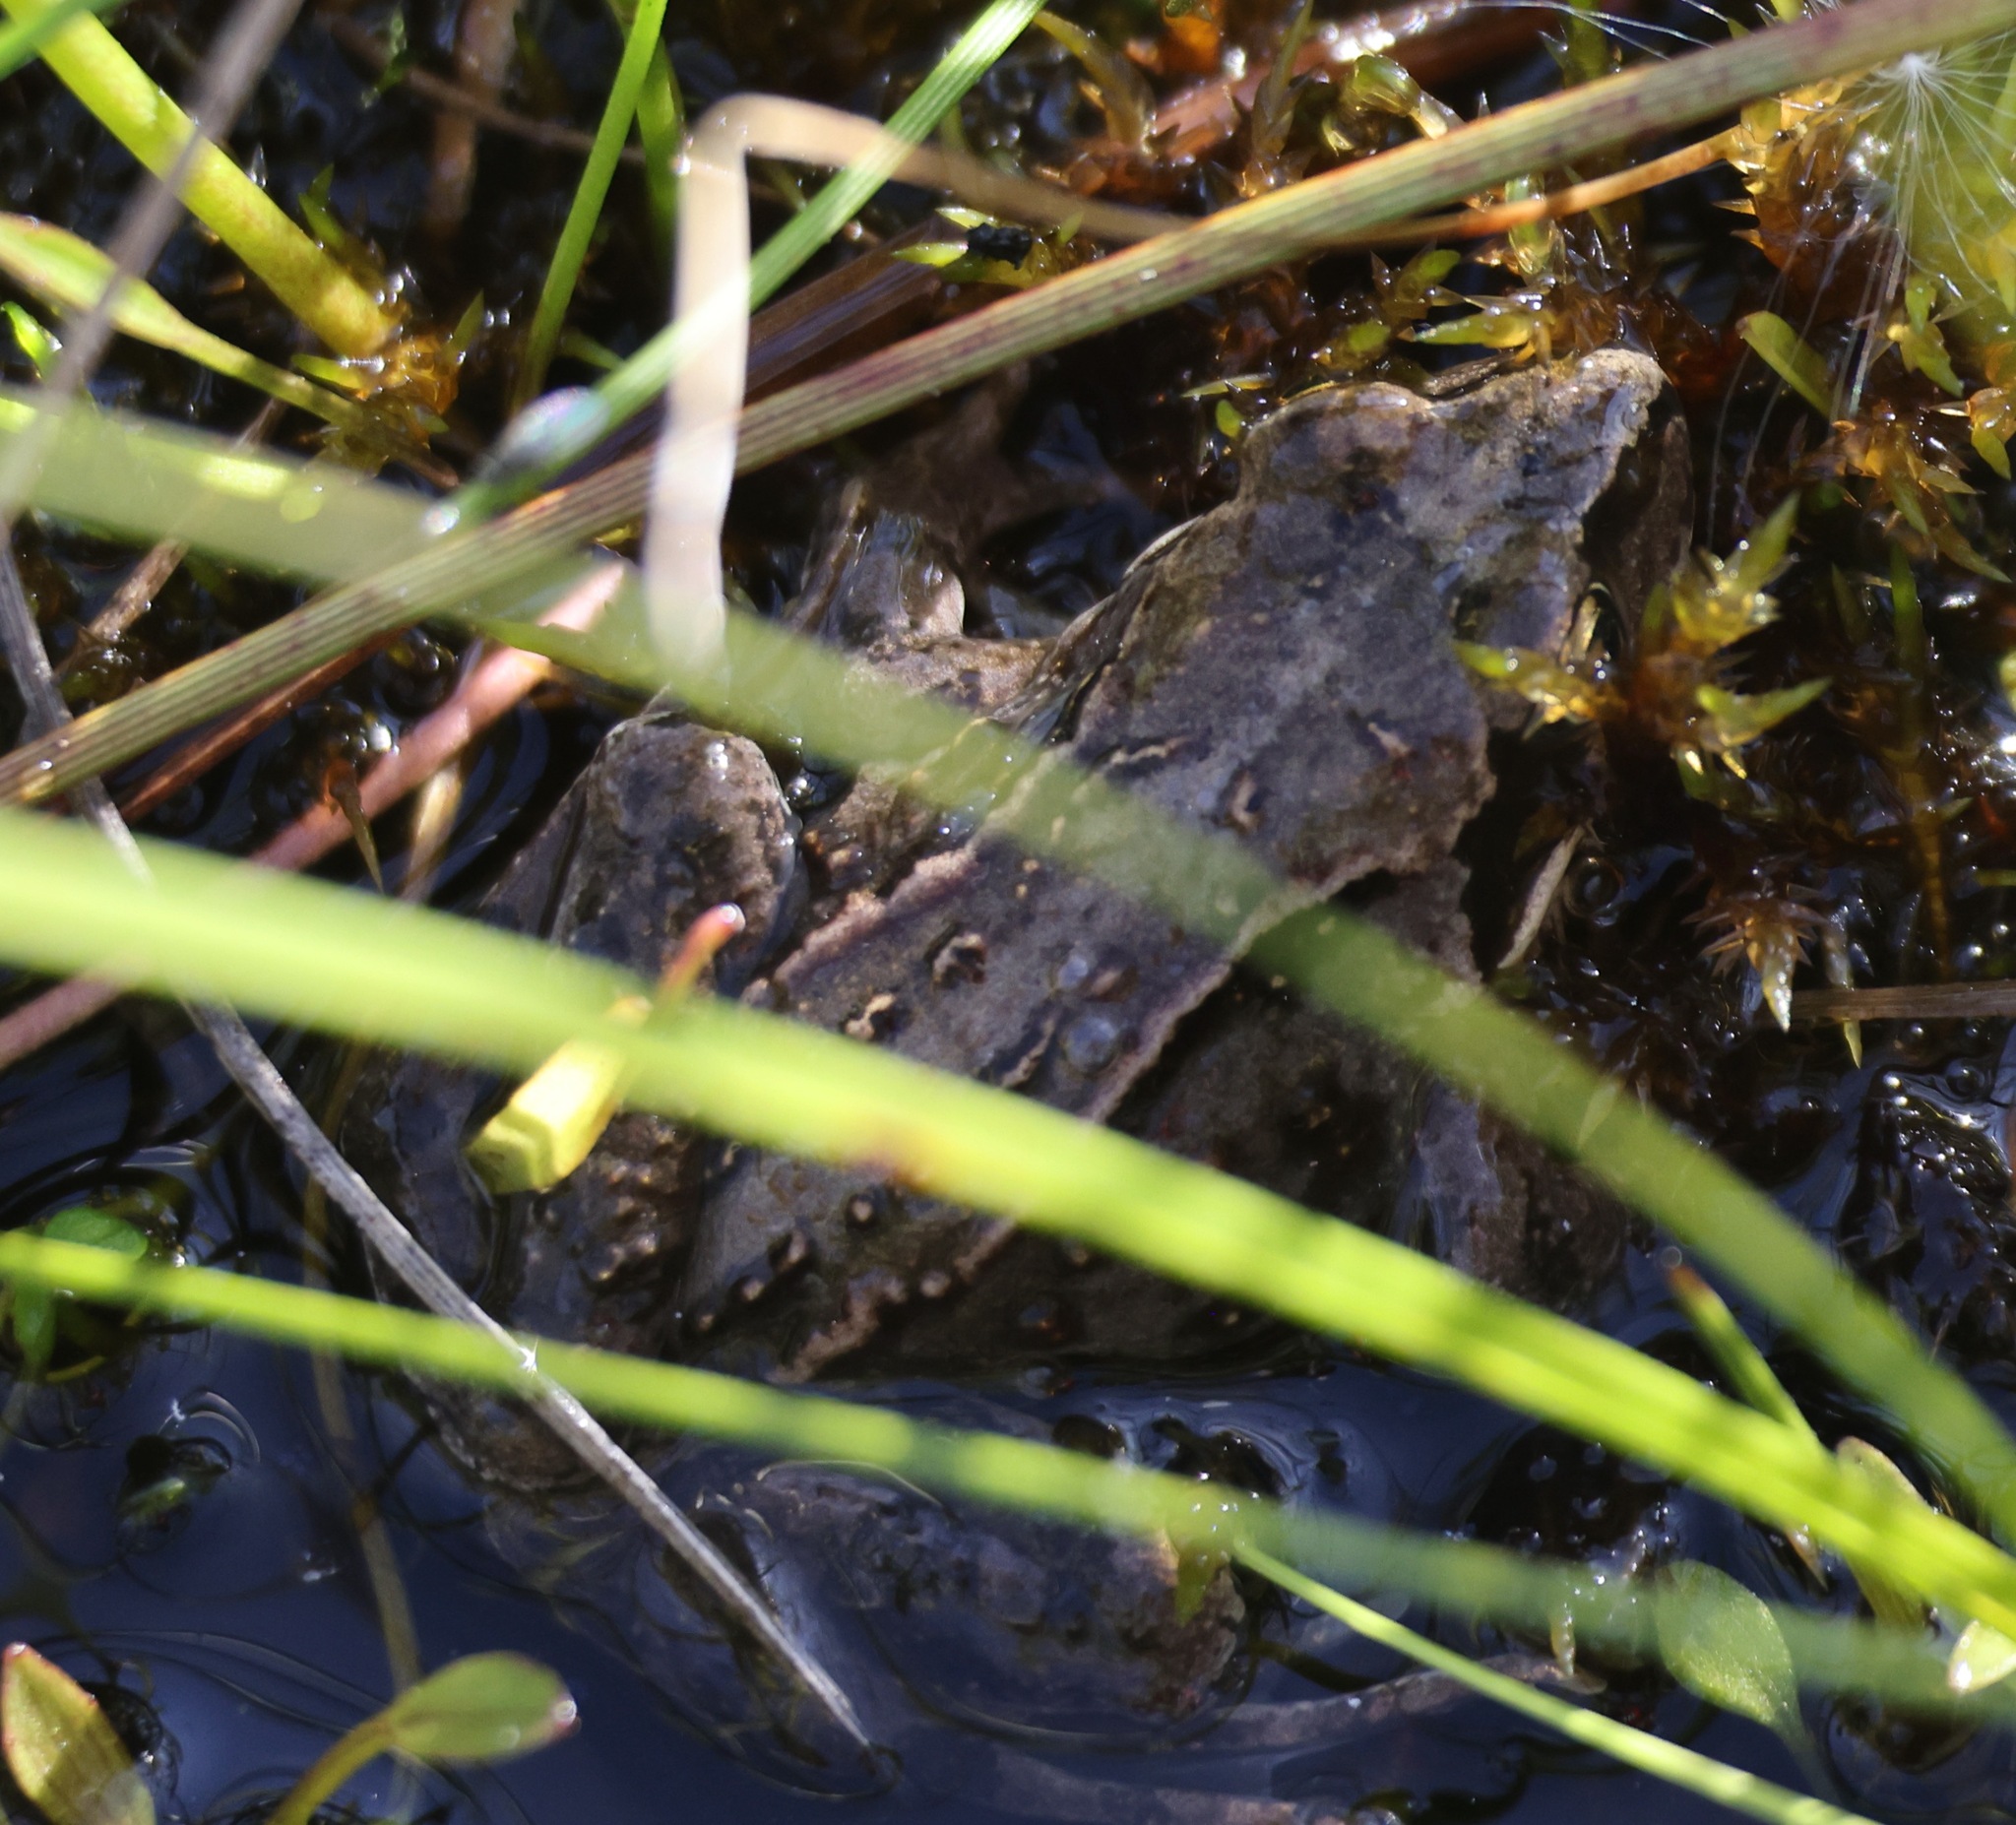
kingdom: Animalia
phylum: Chordata
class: Amphibia
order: Anura
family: Ranidae
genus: Rana
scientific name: Rana temporaria
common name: Common frog
